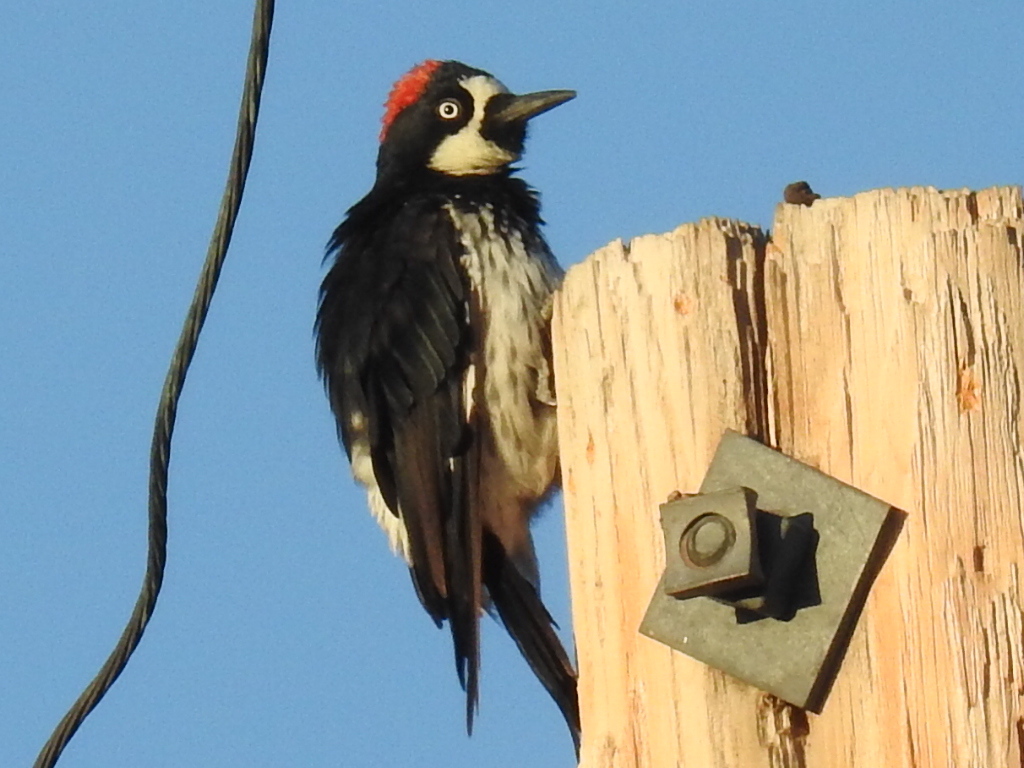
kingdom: Animalia
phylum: Chordata
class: Aves
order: Piciformes
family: Picidae
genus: Melanerpes
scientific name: Melanerpes formicivorus
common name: Acorn woodpecker
